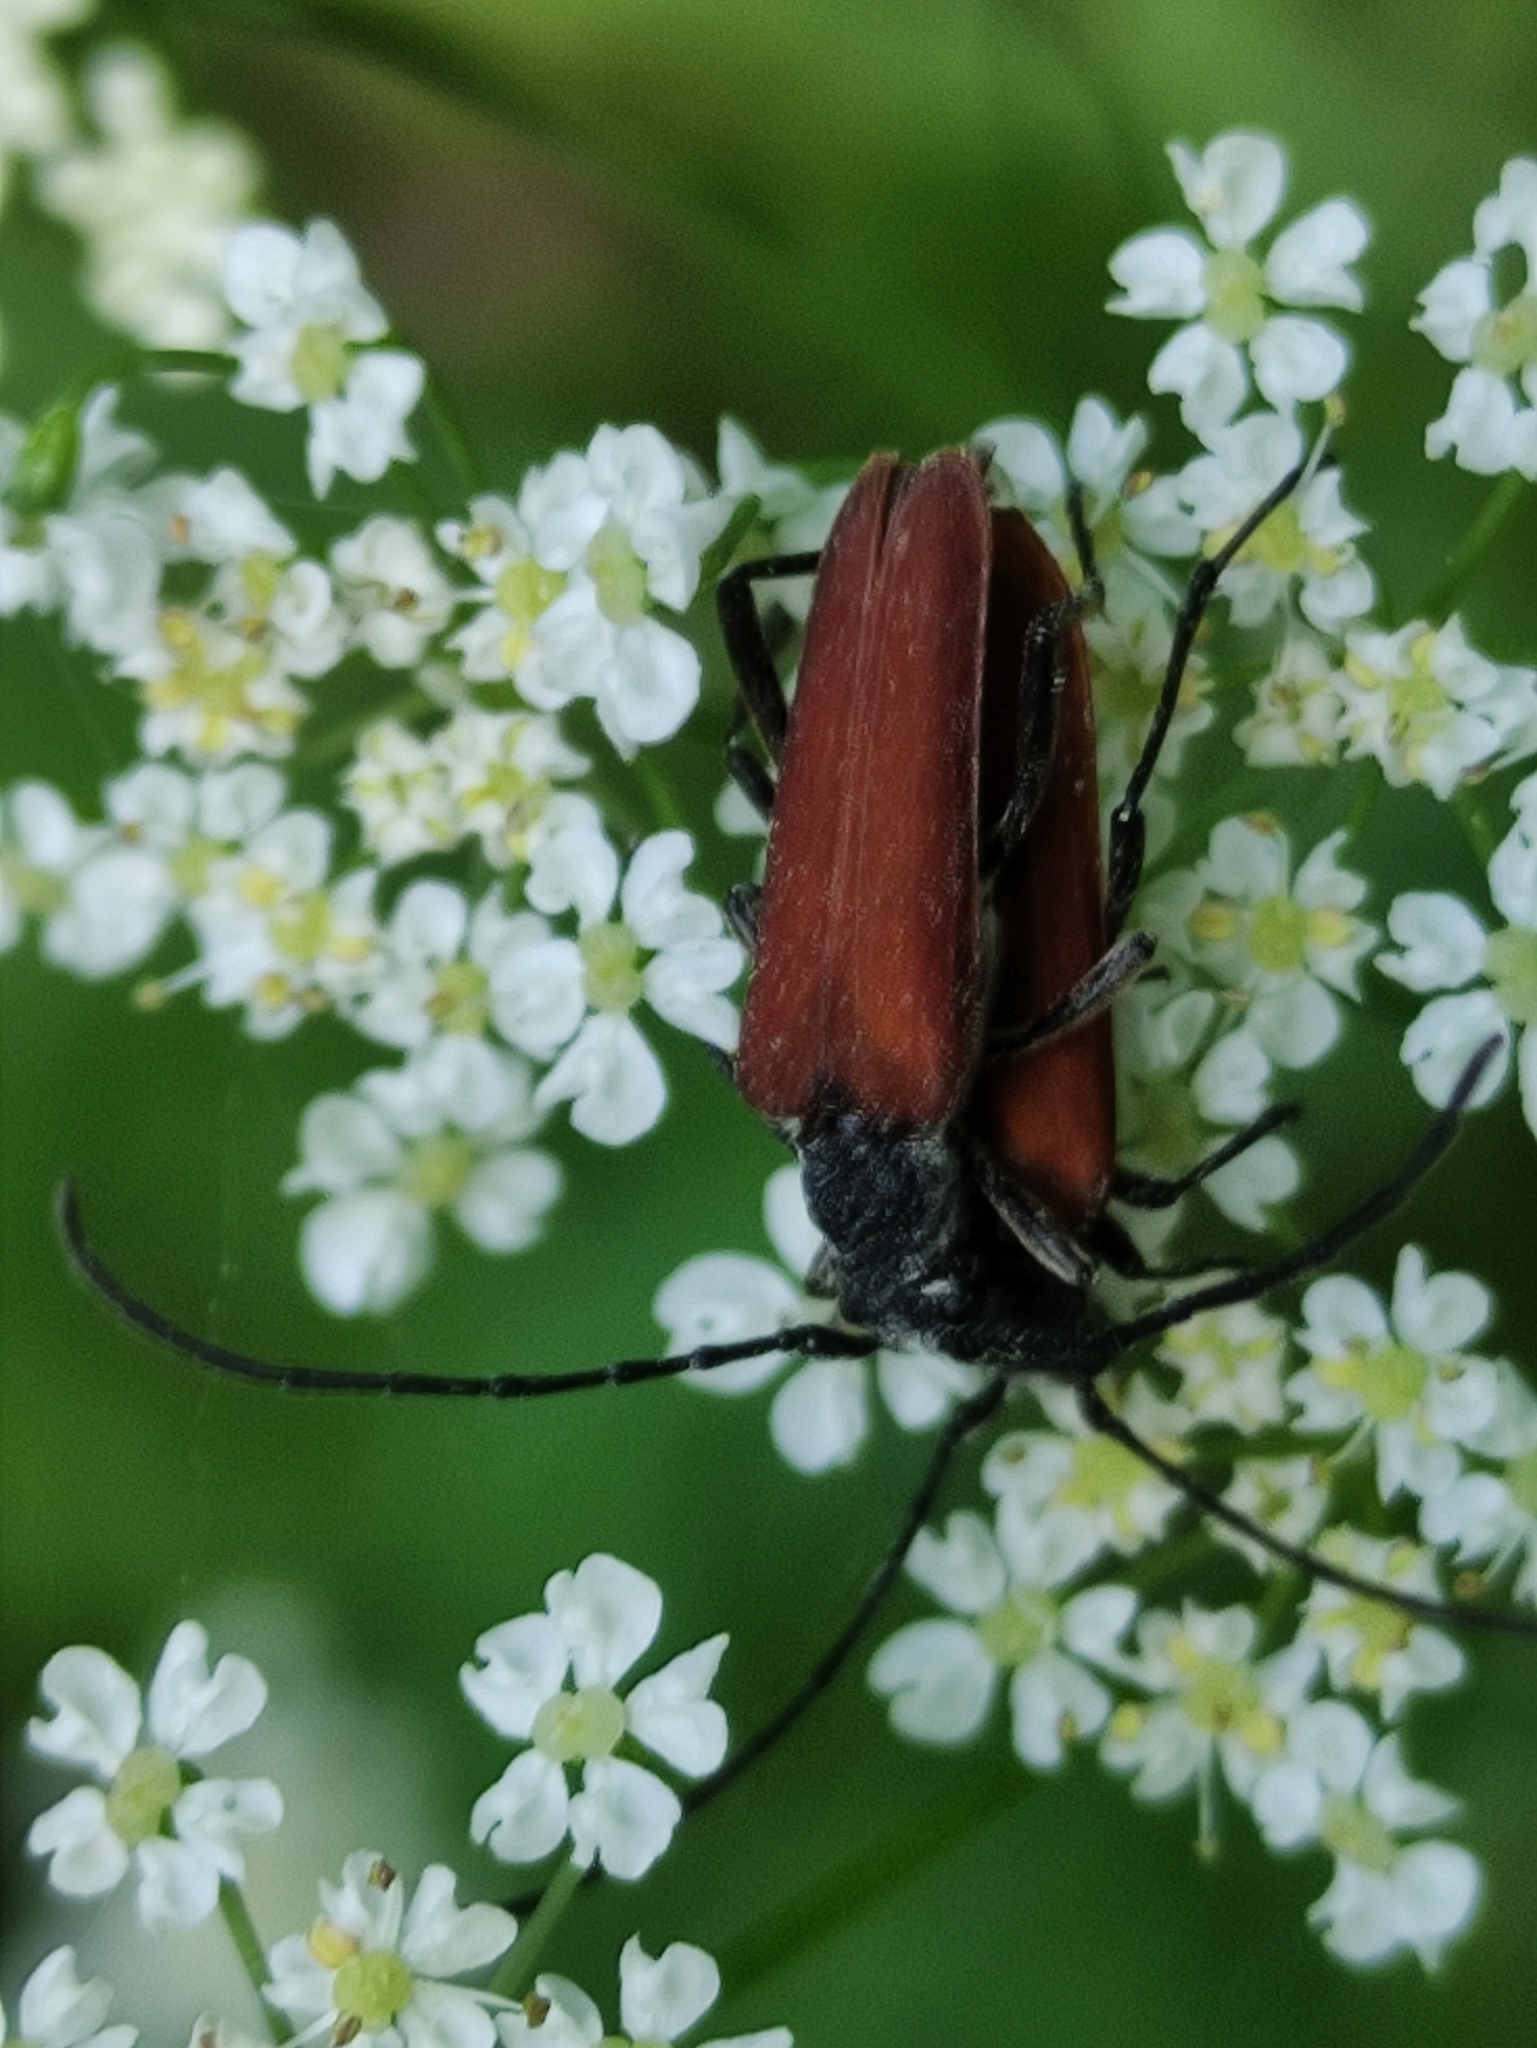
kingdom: Animalia
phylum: Arthropoda
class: Insecta
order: Coleoptera
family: Cerambycidae
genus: Nivellia
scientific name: Nivellia sanguinosa
